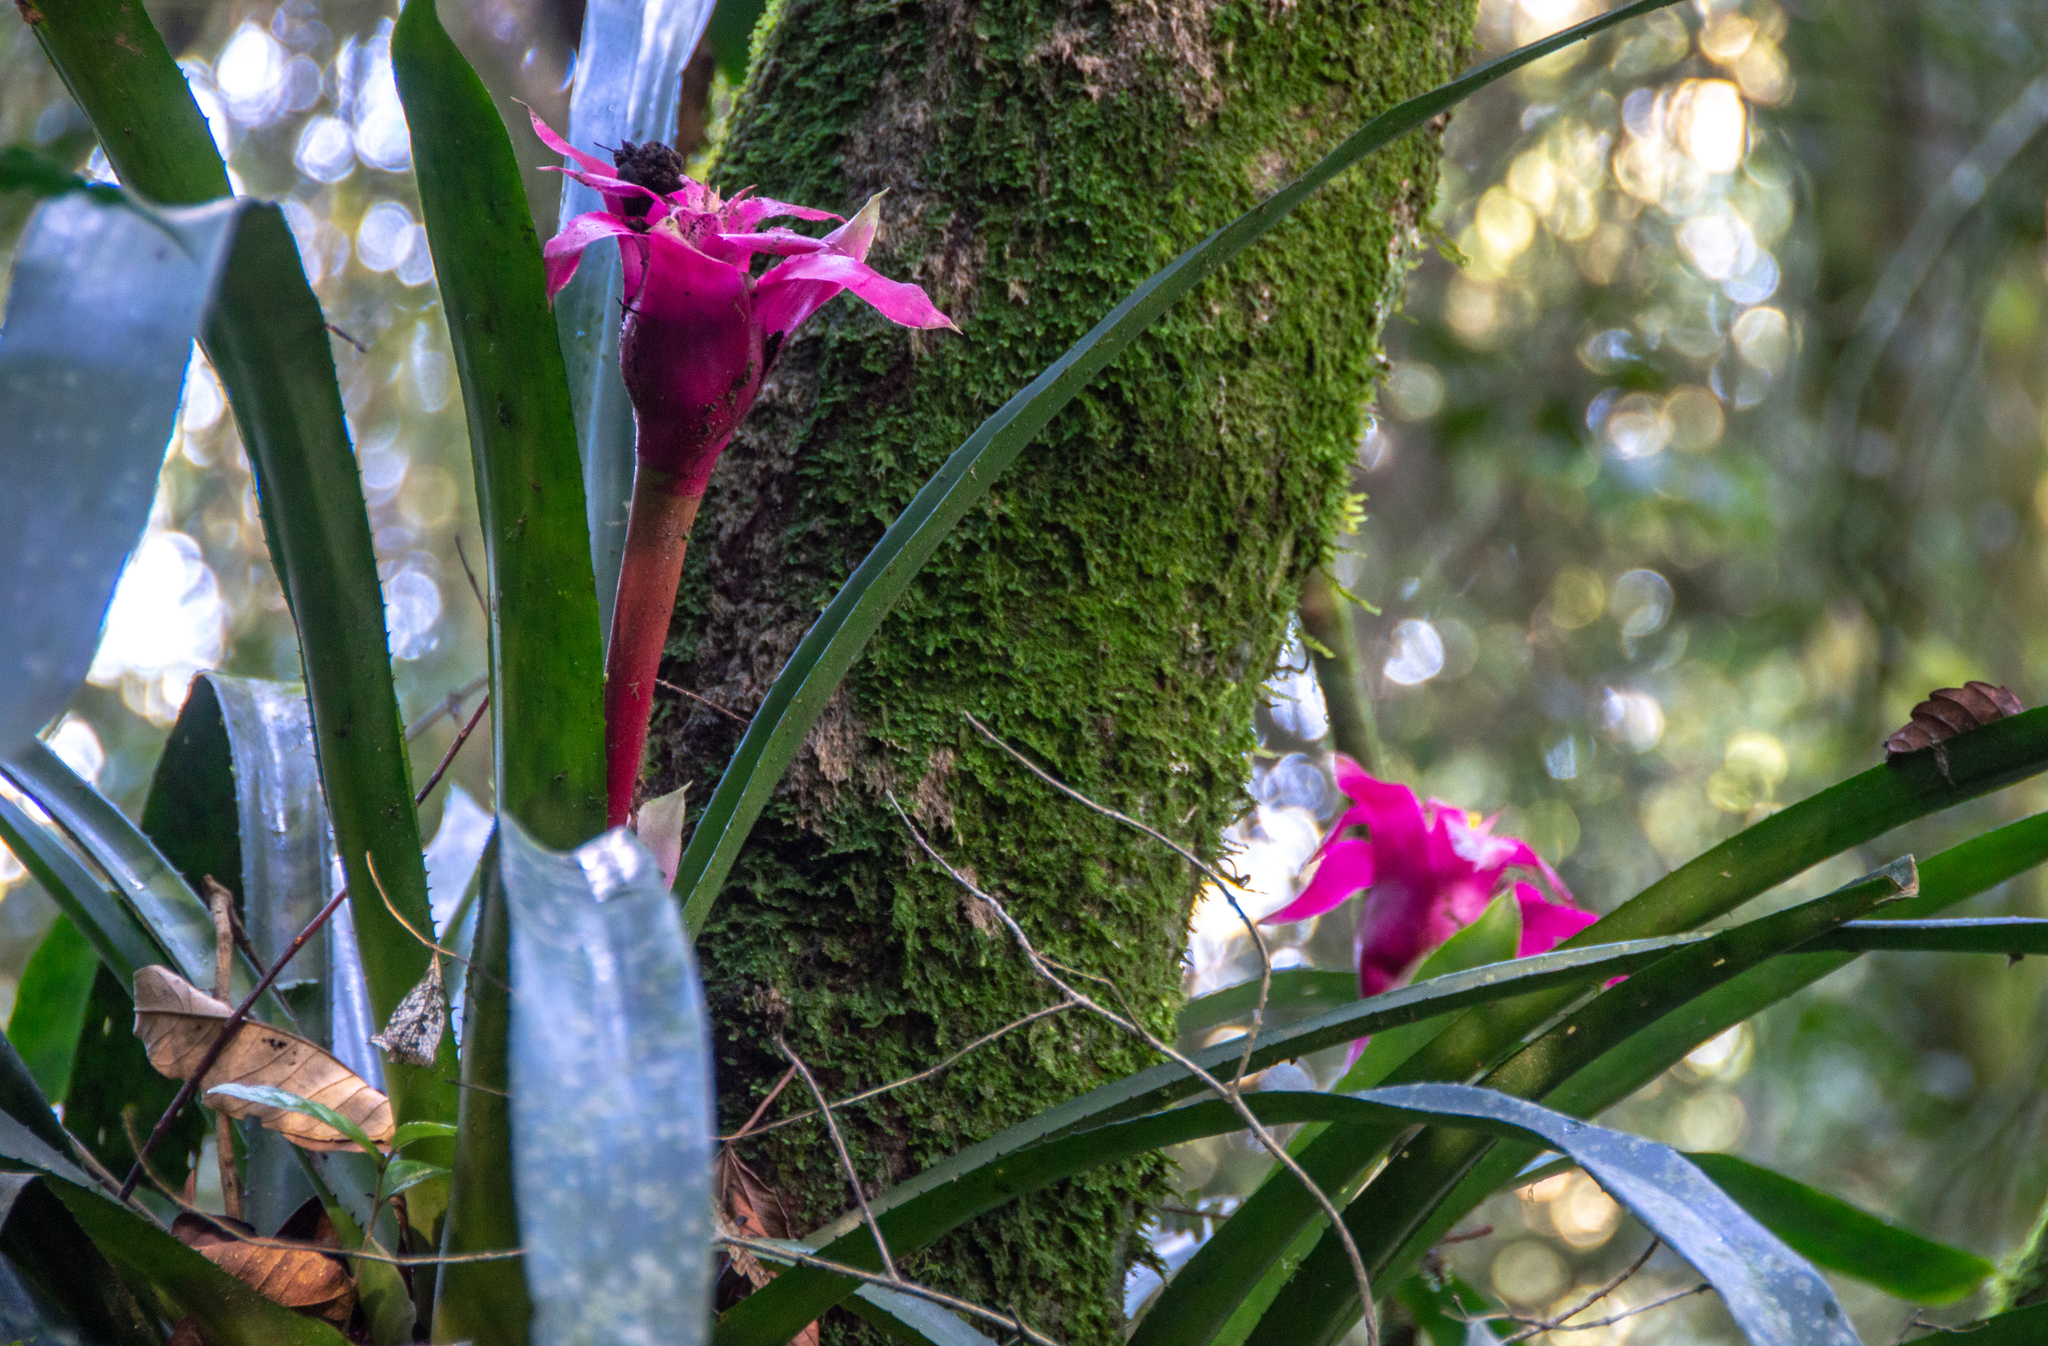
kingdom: Plantae
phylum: Tracheophyta
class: Liliopsida
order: Poales
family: Bromeliaceae
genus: Wittrockia
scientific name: Wittrockia cyathiformis
